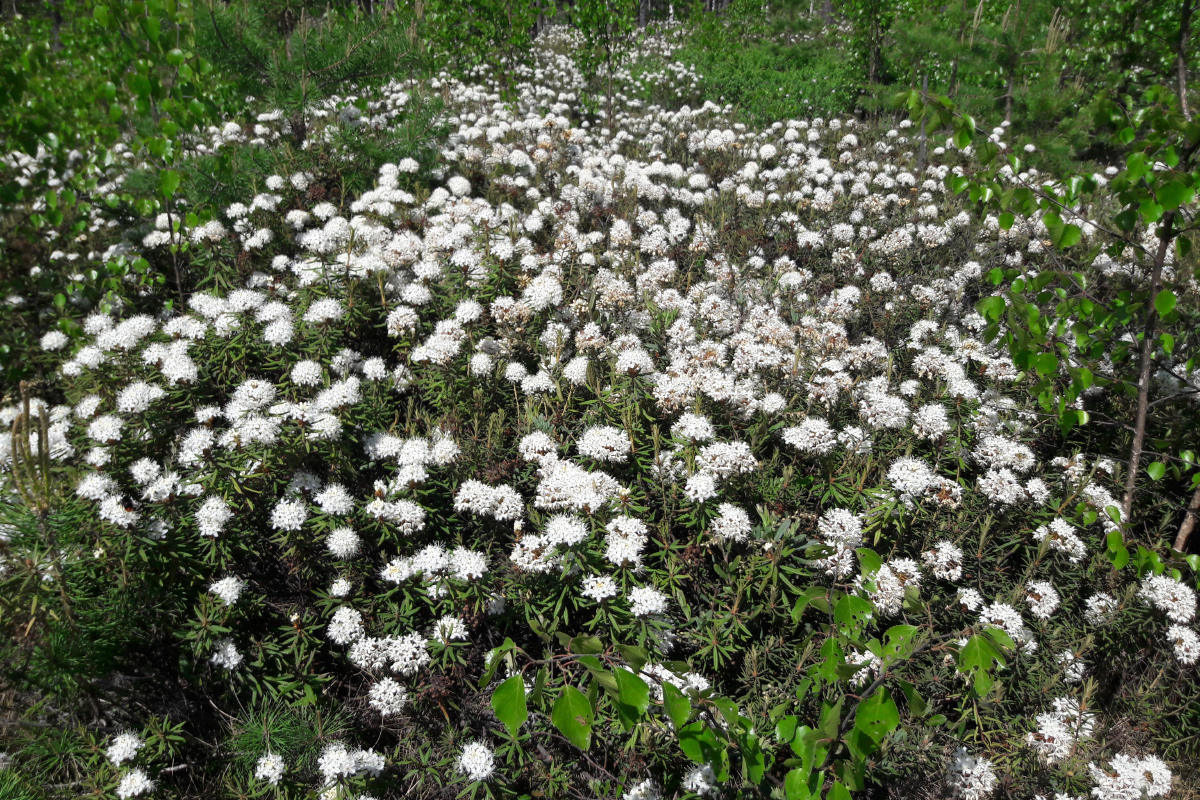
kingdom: Plantae
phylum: Tracheophyta
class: Magnoliopsida
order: Ericales
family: Ericaceae
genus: Rhododendron
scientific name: Rhododendron tomentosum
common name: Marsh labrador tea
